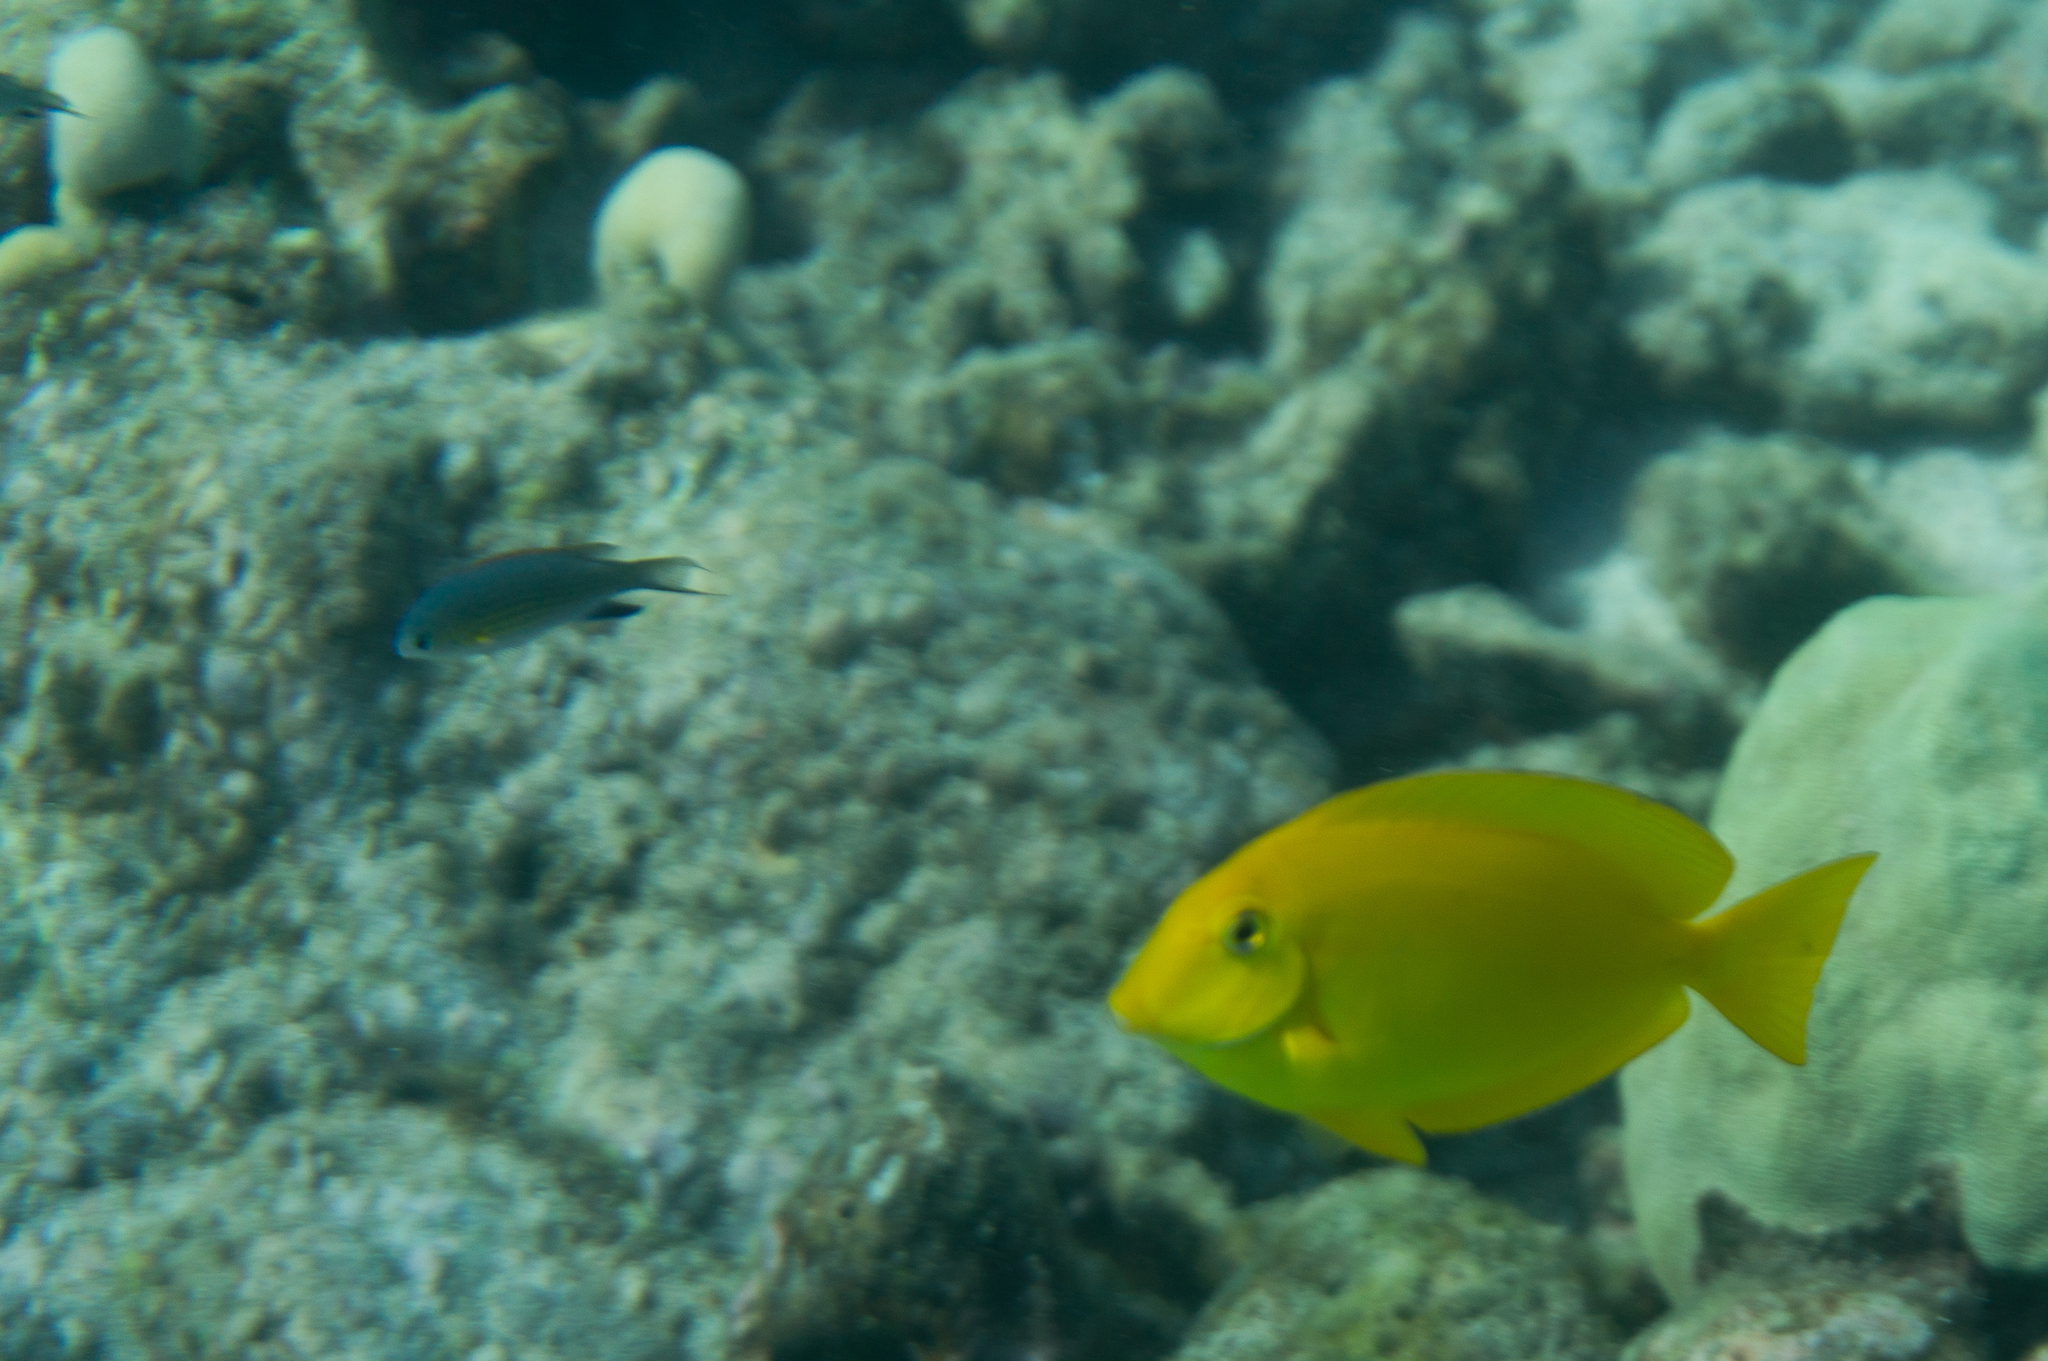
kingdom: Animalia
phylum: Chordata
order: Perciformes
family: Acanthuridae
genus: Acanthurus
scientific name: Acanthurus olivaceus
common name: Gendarme fish
